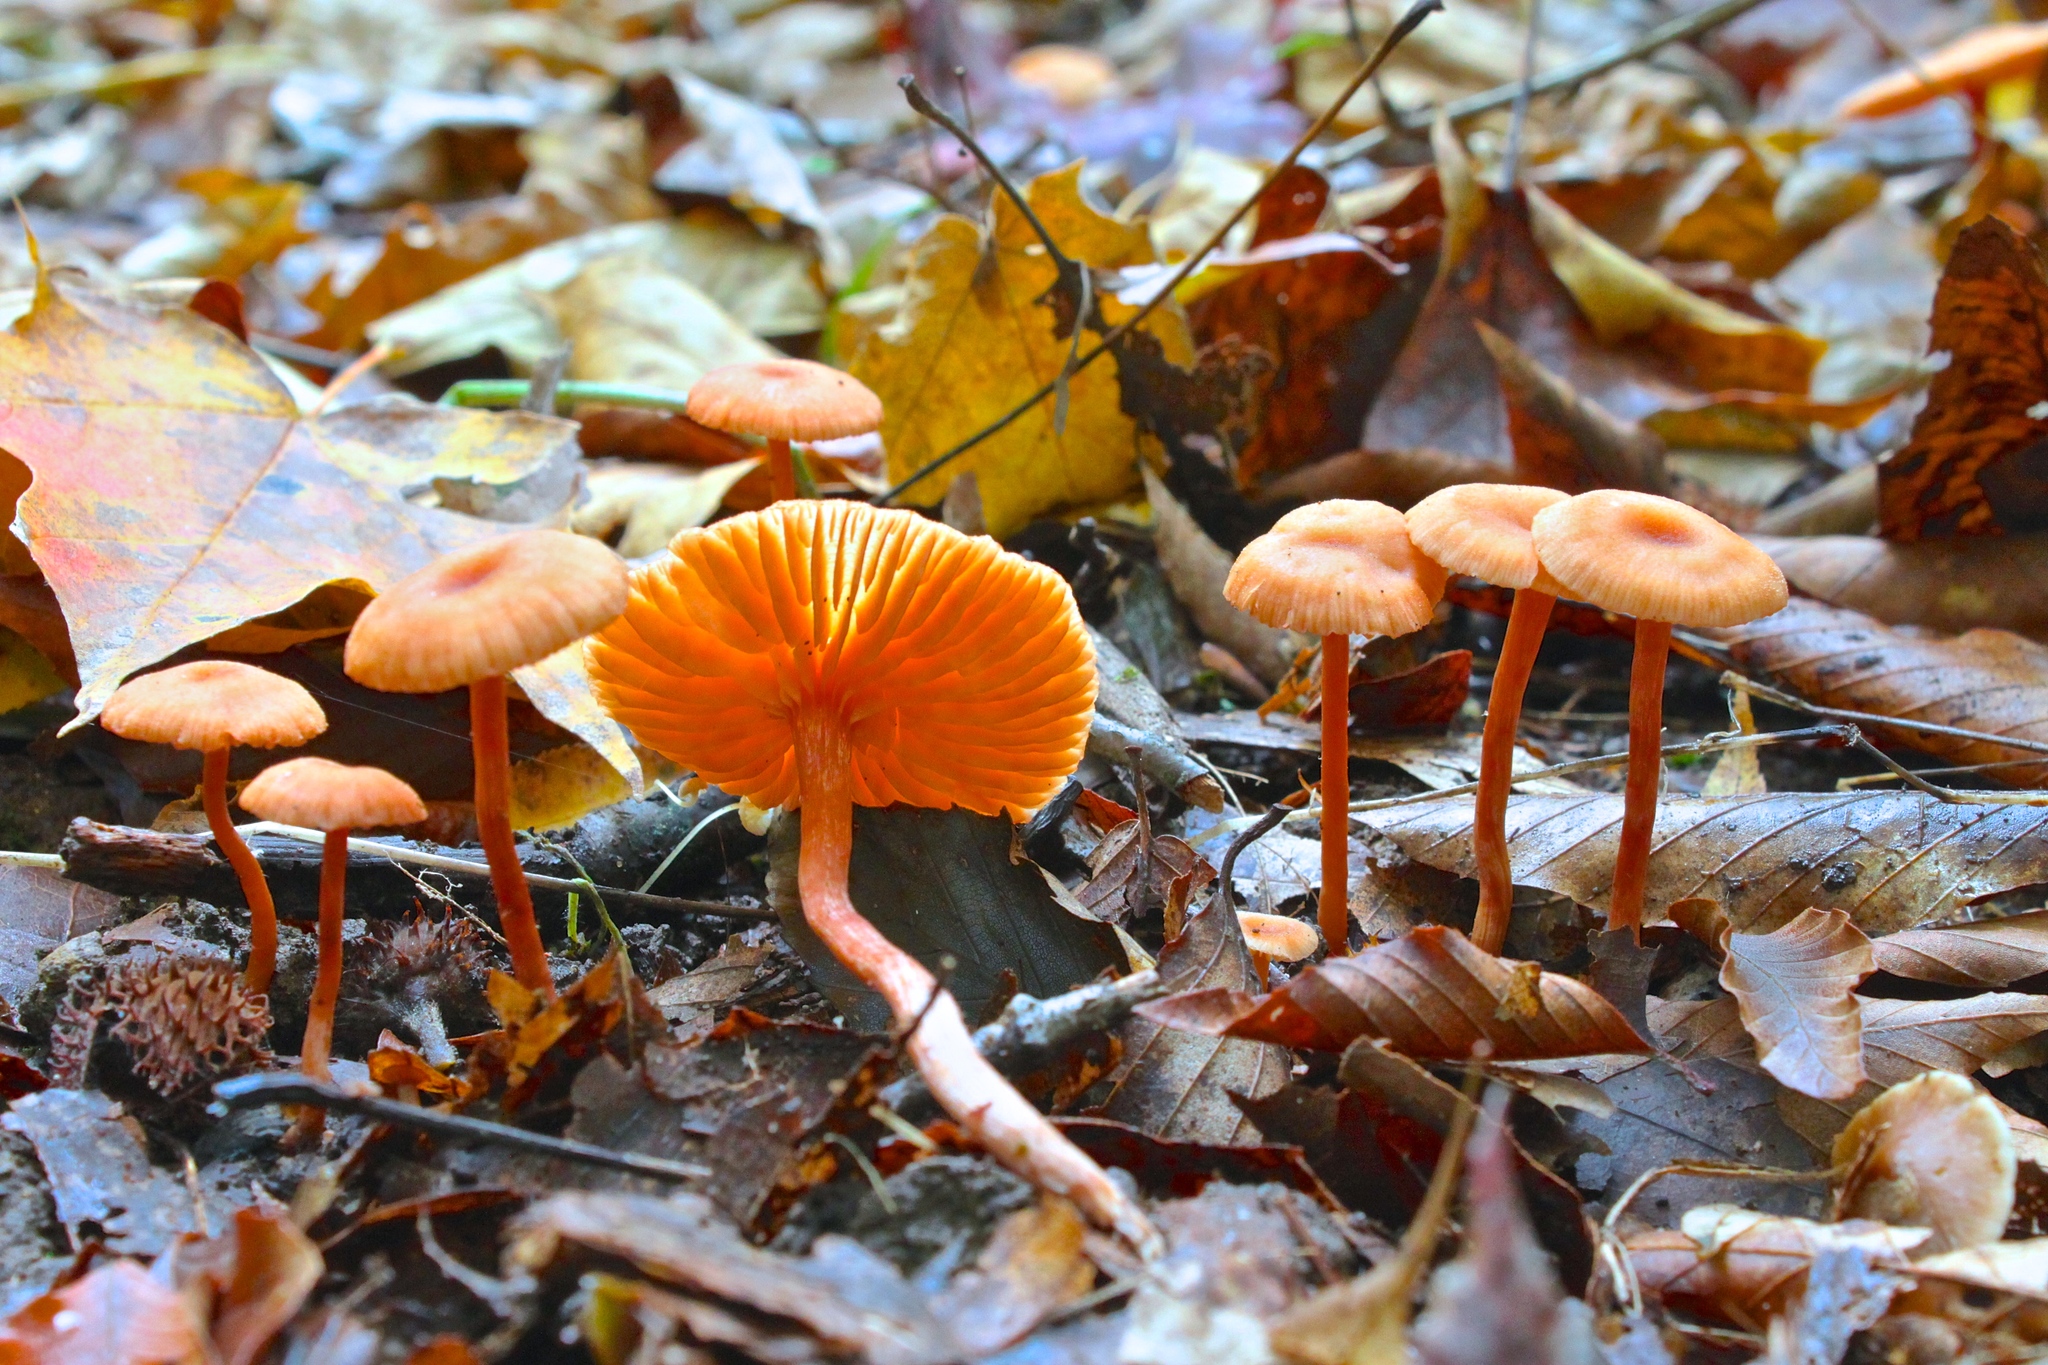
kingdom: Fungi
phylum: Basidiomycota
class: Agaricomycetes
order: Agaricales
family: Hydnangiaceae
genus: Laccaria
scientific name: Laccaria laccata
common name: Deceiver
